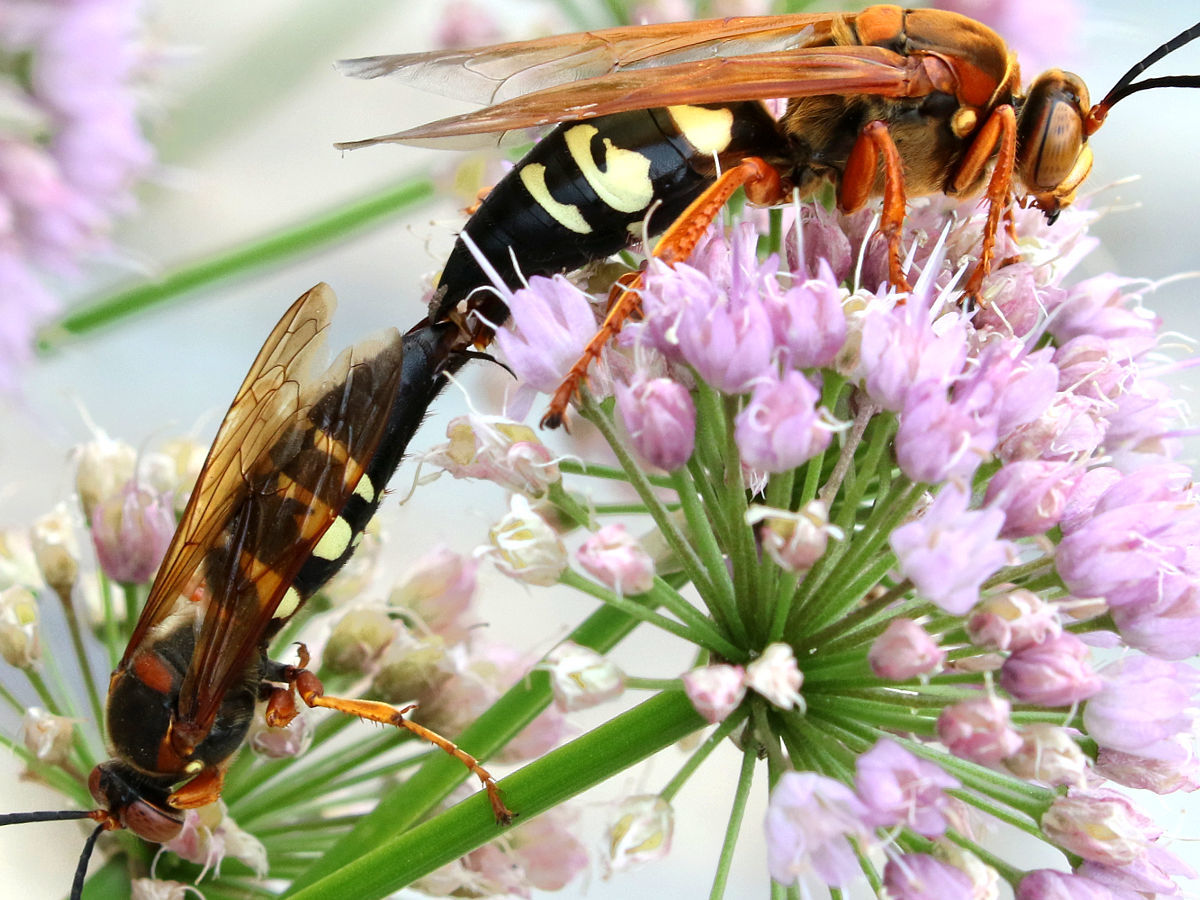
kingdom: Animalia
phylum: Arthropoda
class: Insecta
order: Hymenoptera
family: Crabronidae
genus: Sphecius
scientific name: Sphecius speciosus
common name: Cicada killer
